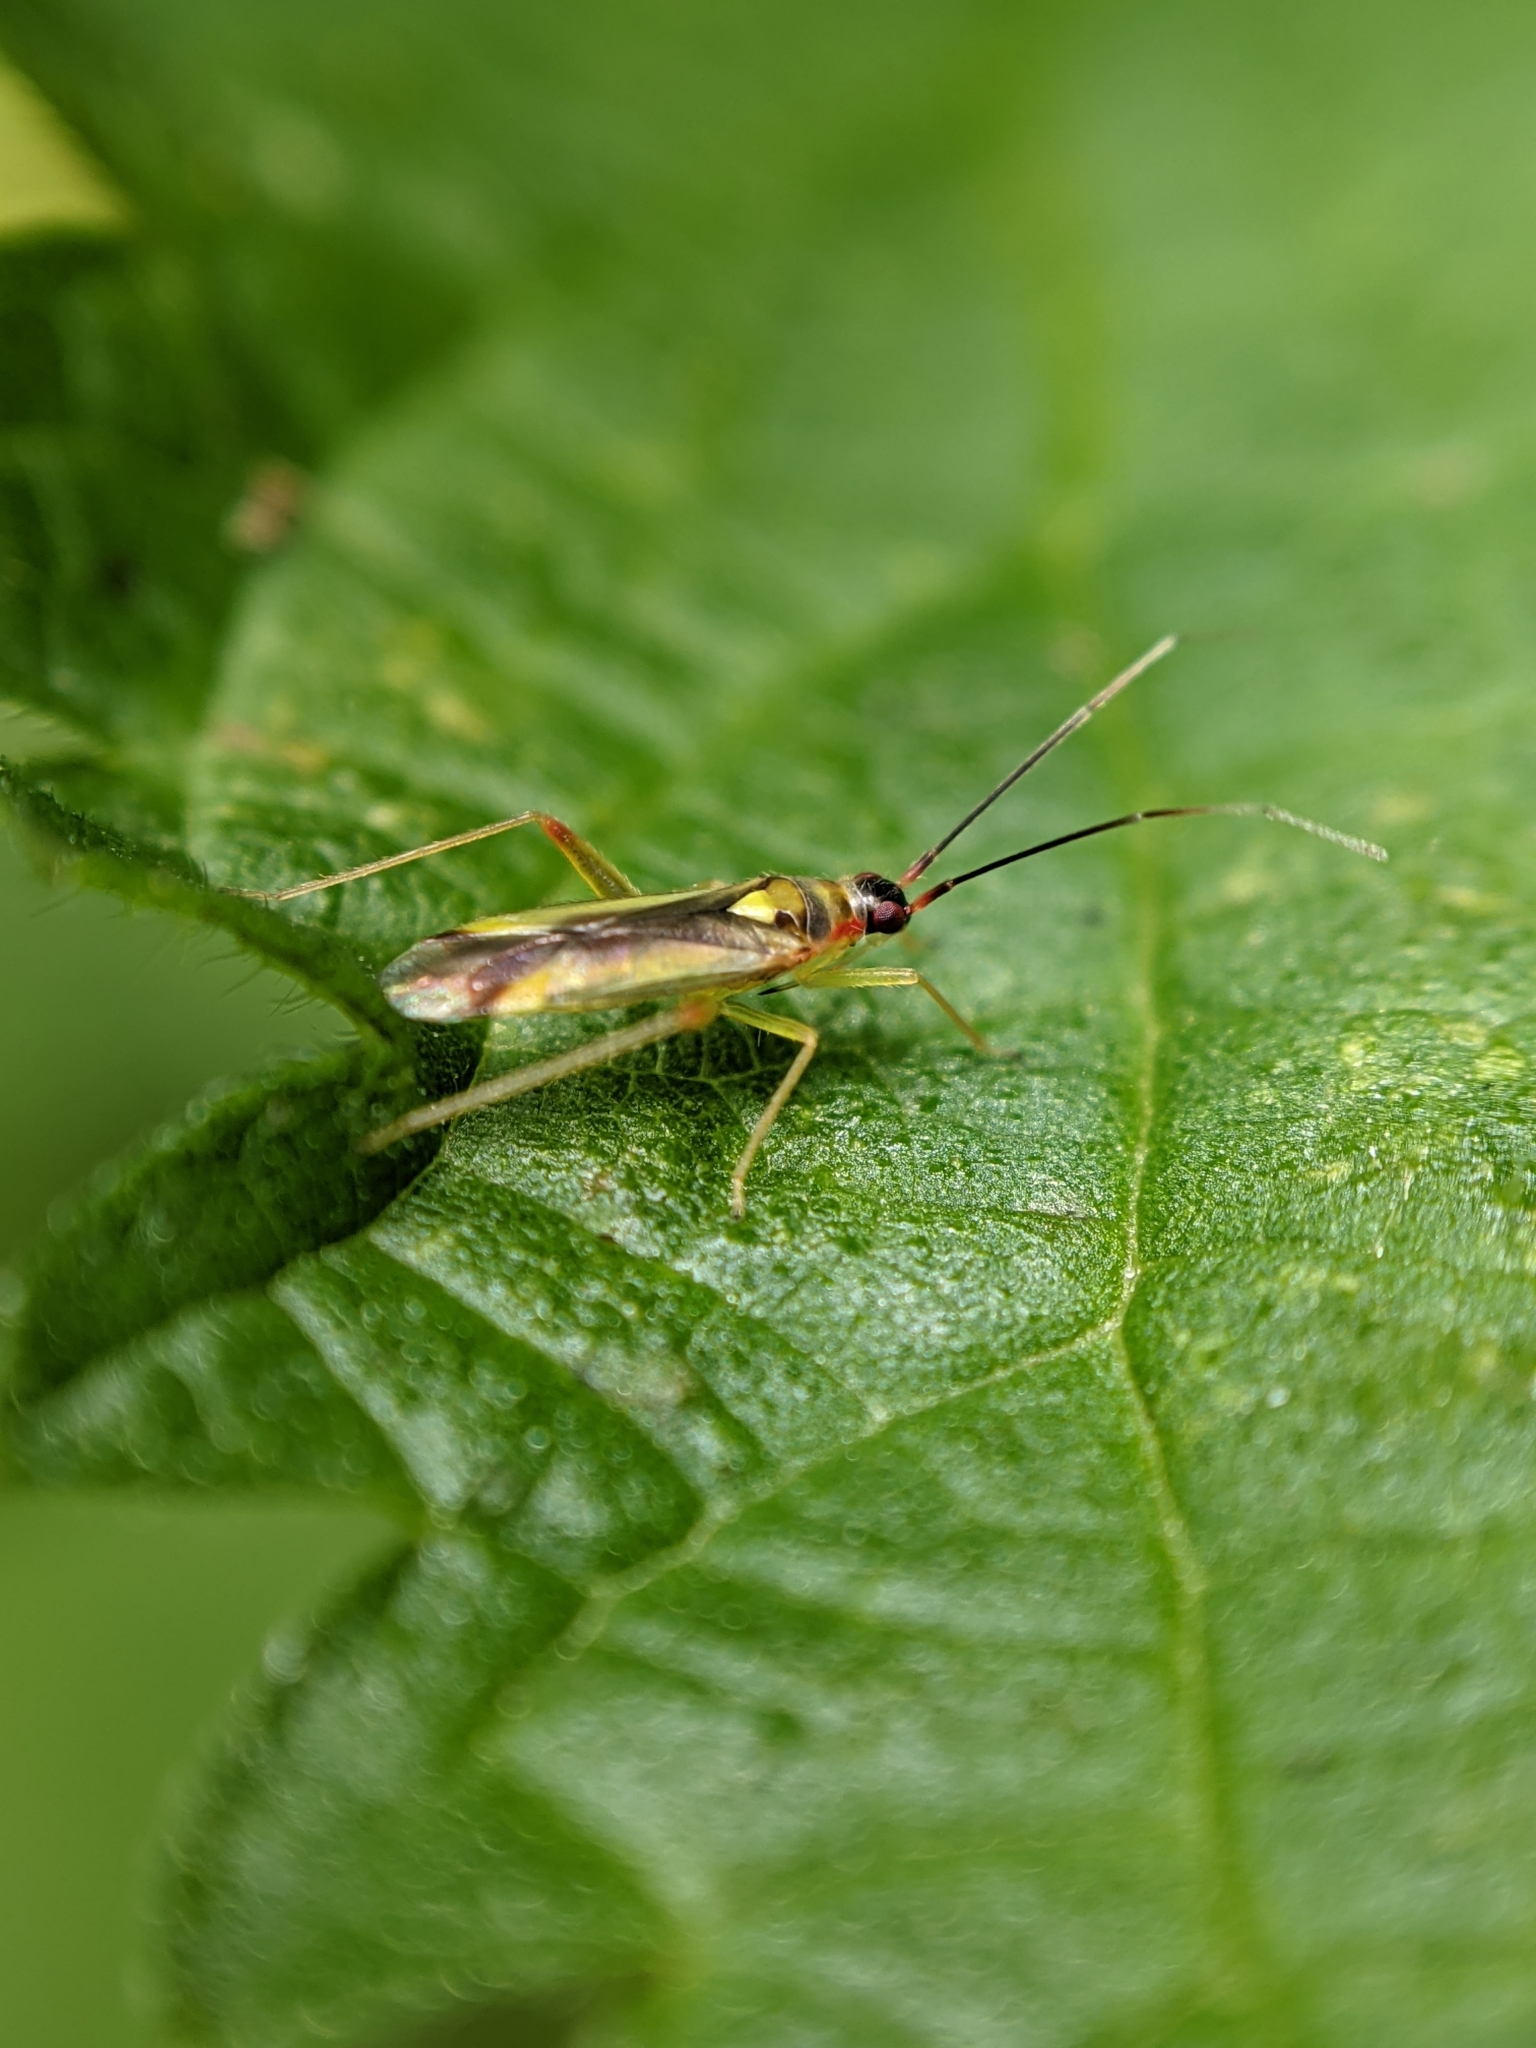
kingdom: Animalia
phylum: Arthropoda
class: Insecta
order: Hemiptera
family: Miridae
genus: Campyloneura
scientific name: Campyloneura virgula
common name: Predatory bug
